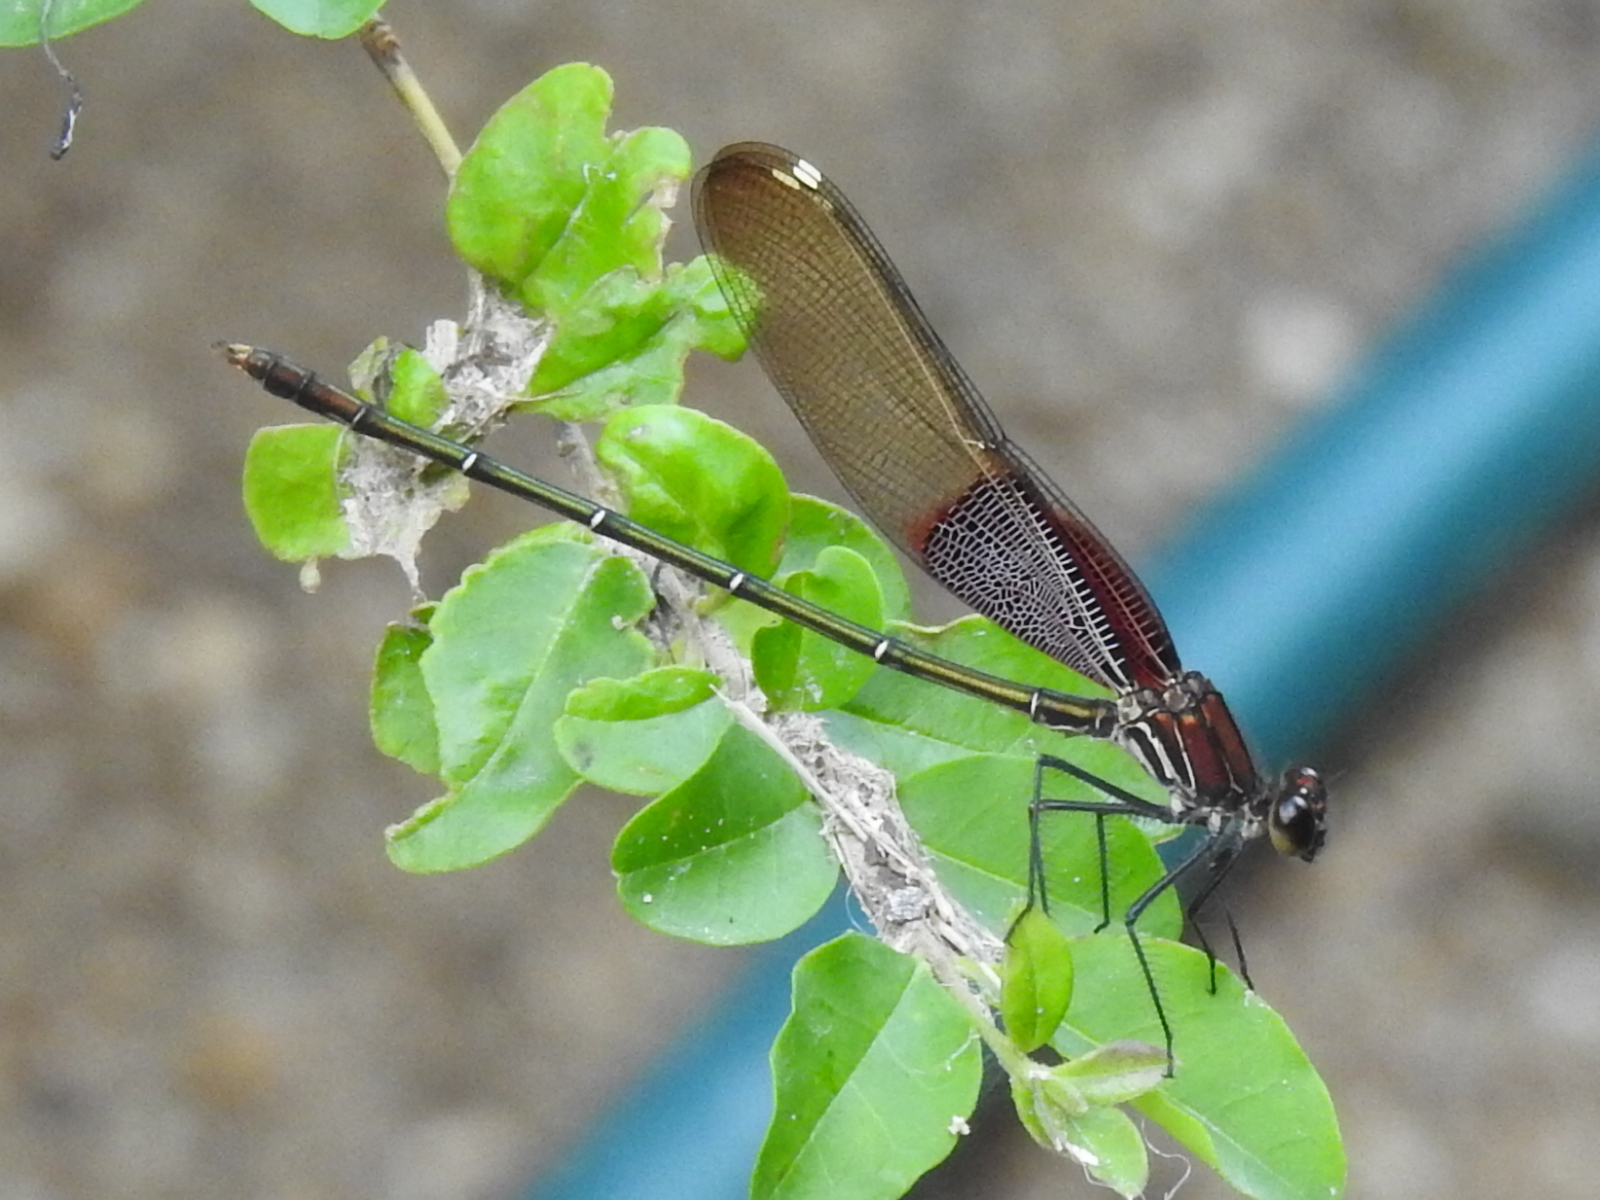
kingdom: Animalia
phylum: Arthropoda
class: Insecta
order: Odonata
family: Calopterygidae
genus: Hetaerina
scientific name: Hetaerina americana
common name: American rubyspot
